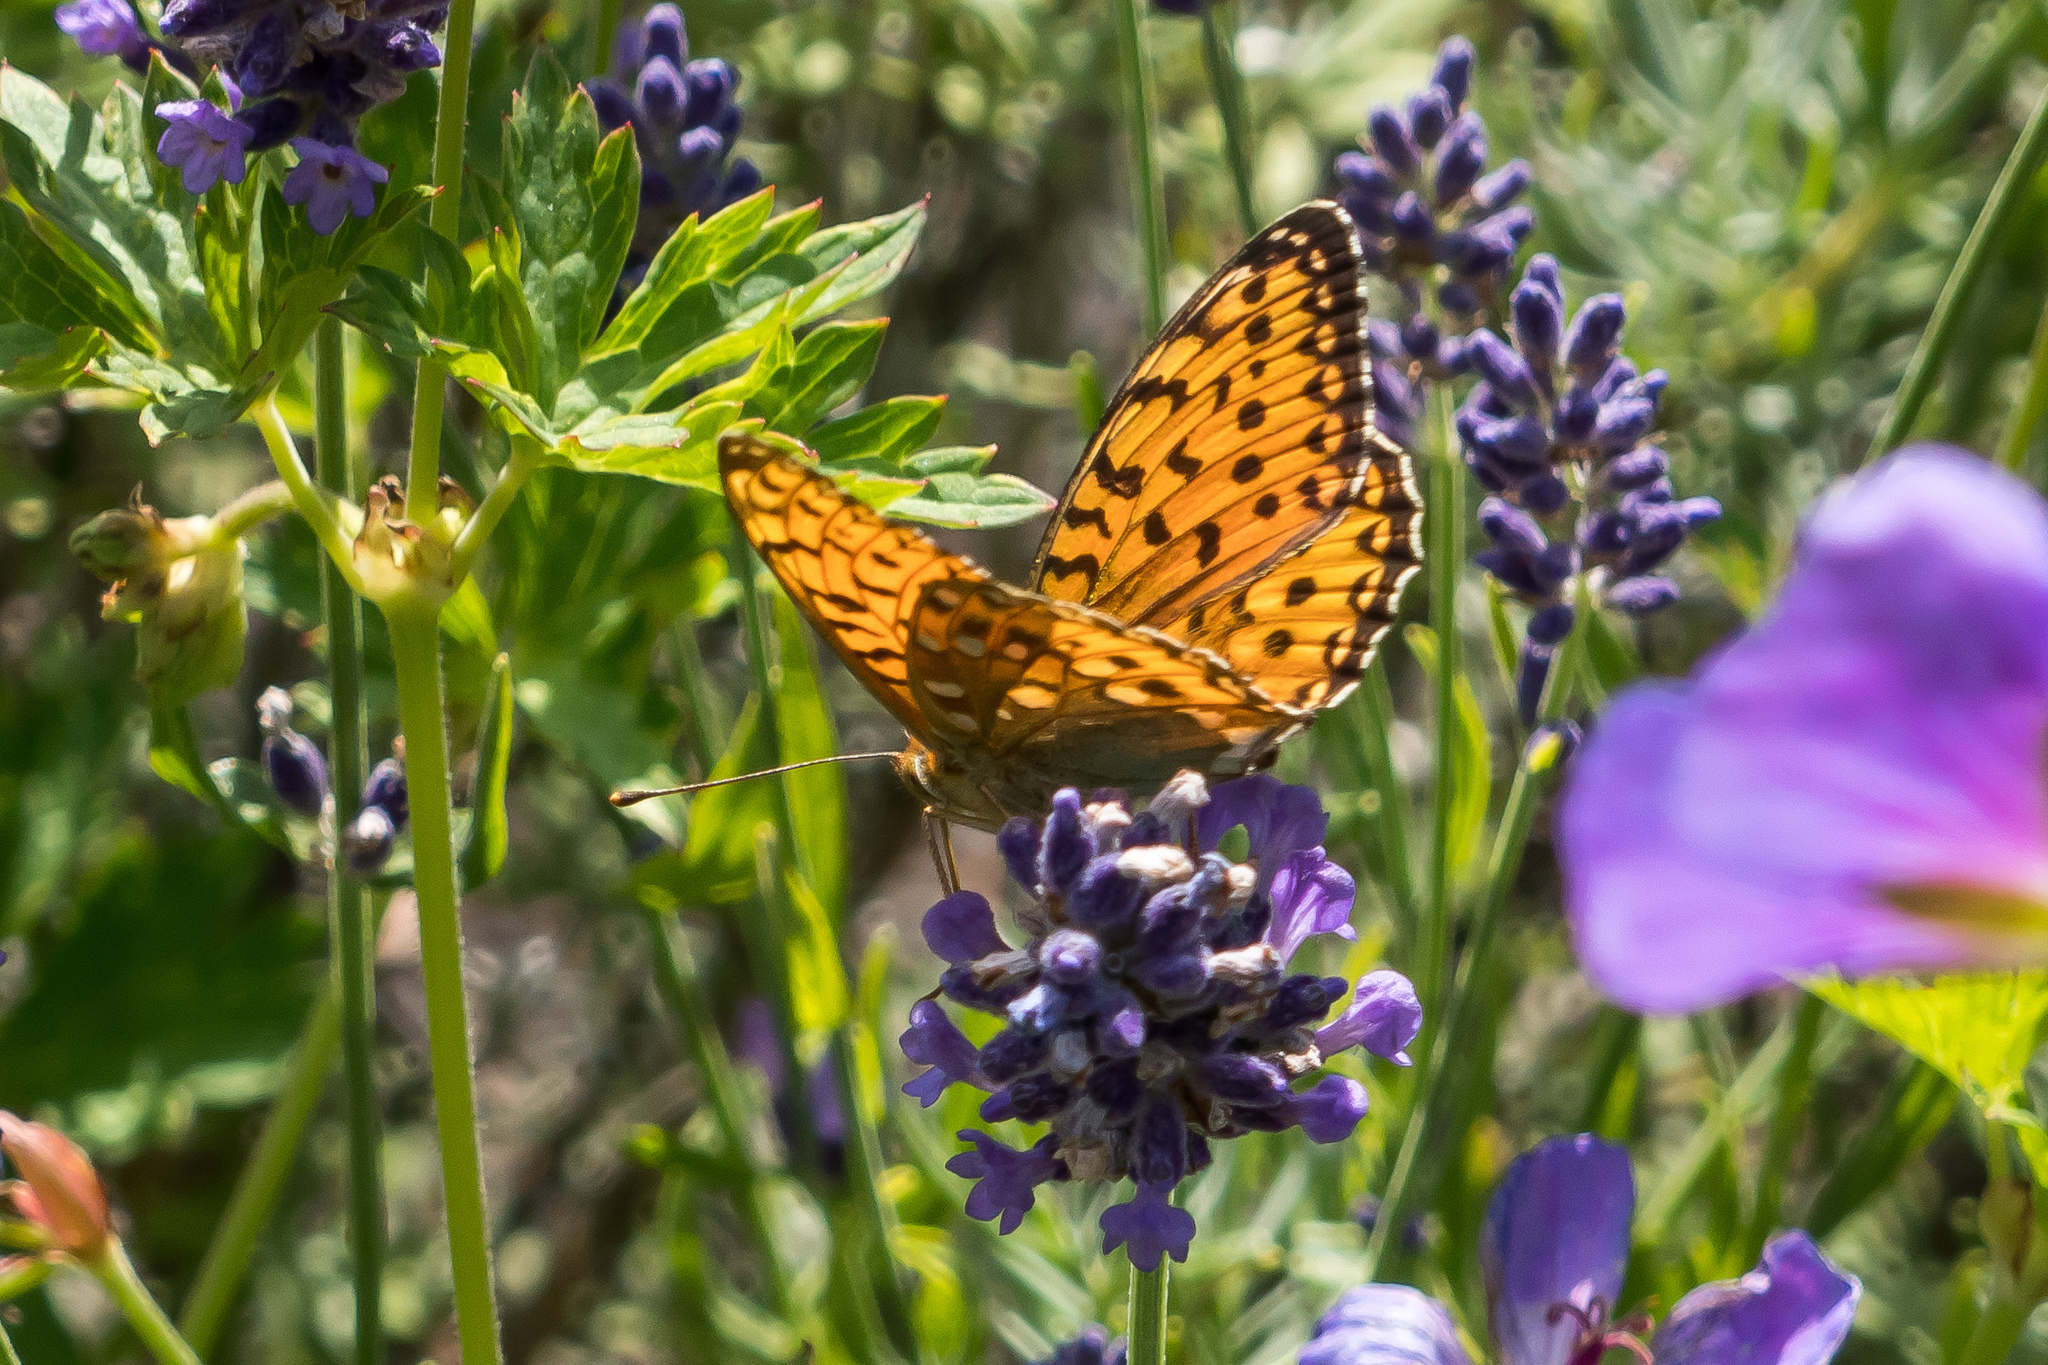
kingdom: Animalia
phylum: Arthropoda
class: Insecta
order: Lepidoptera
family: Nymphalidae
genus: Speyeria
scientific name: Speyeria aglaja
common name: Dark green fritillary
